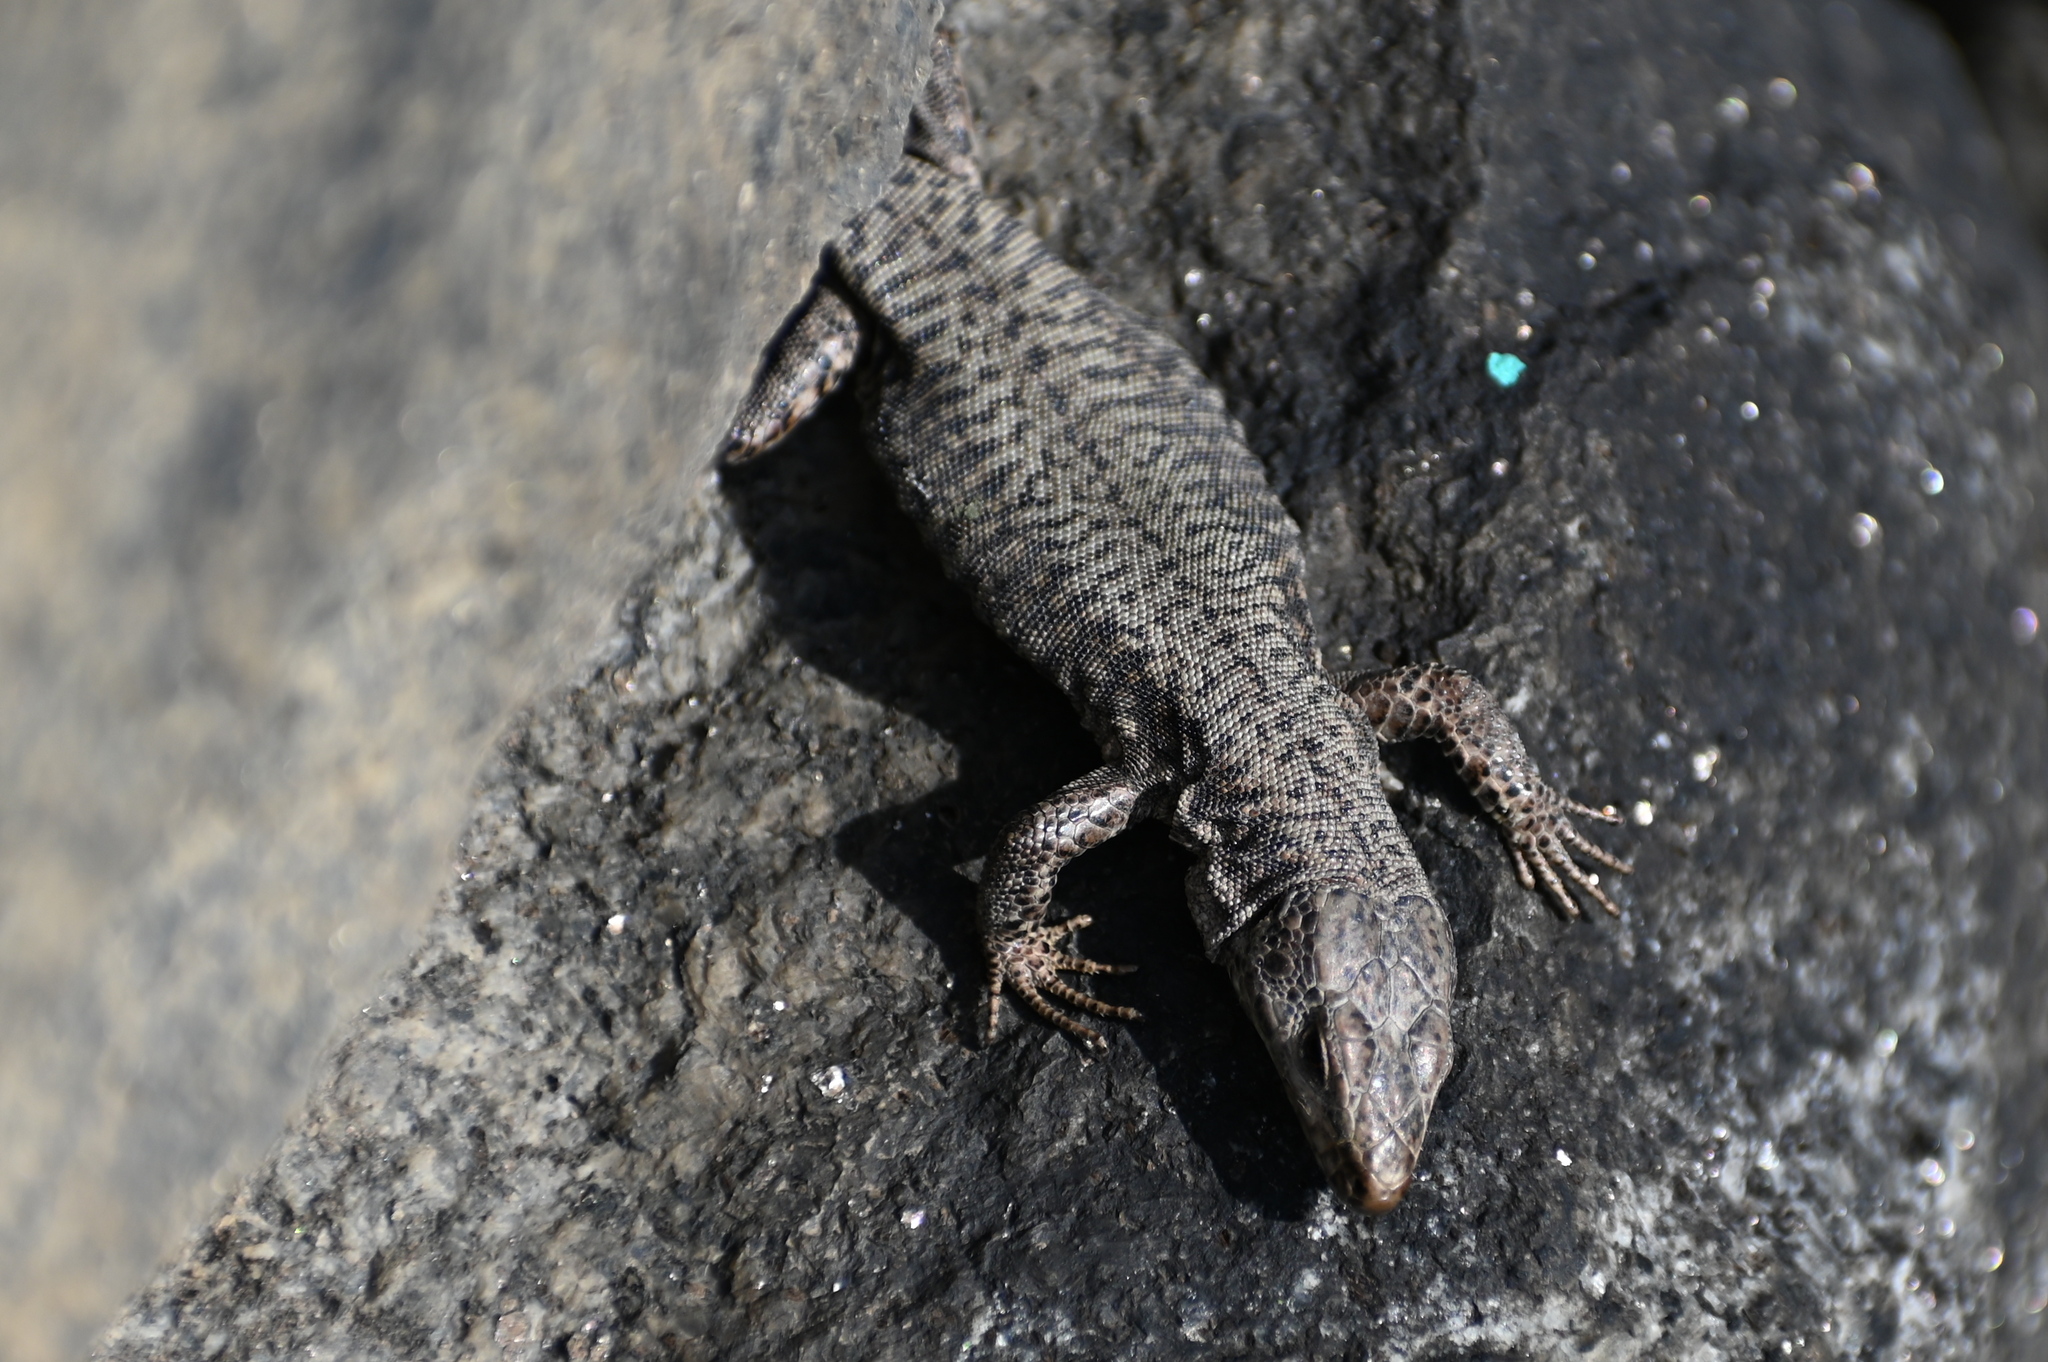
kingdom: Animalia
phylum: Chordata
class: Squamata
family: Lacertidae
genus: Podarcis
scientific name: Podarcis muralis
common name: Common wall lizard
